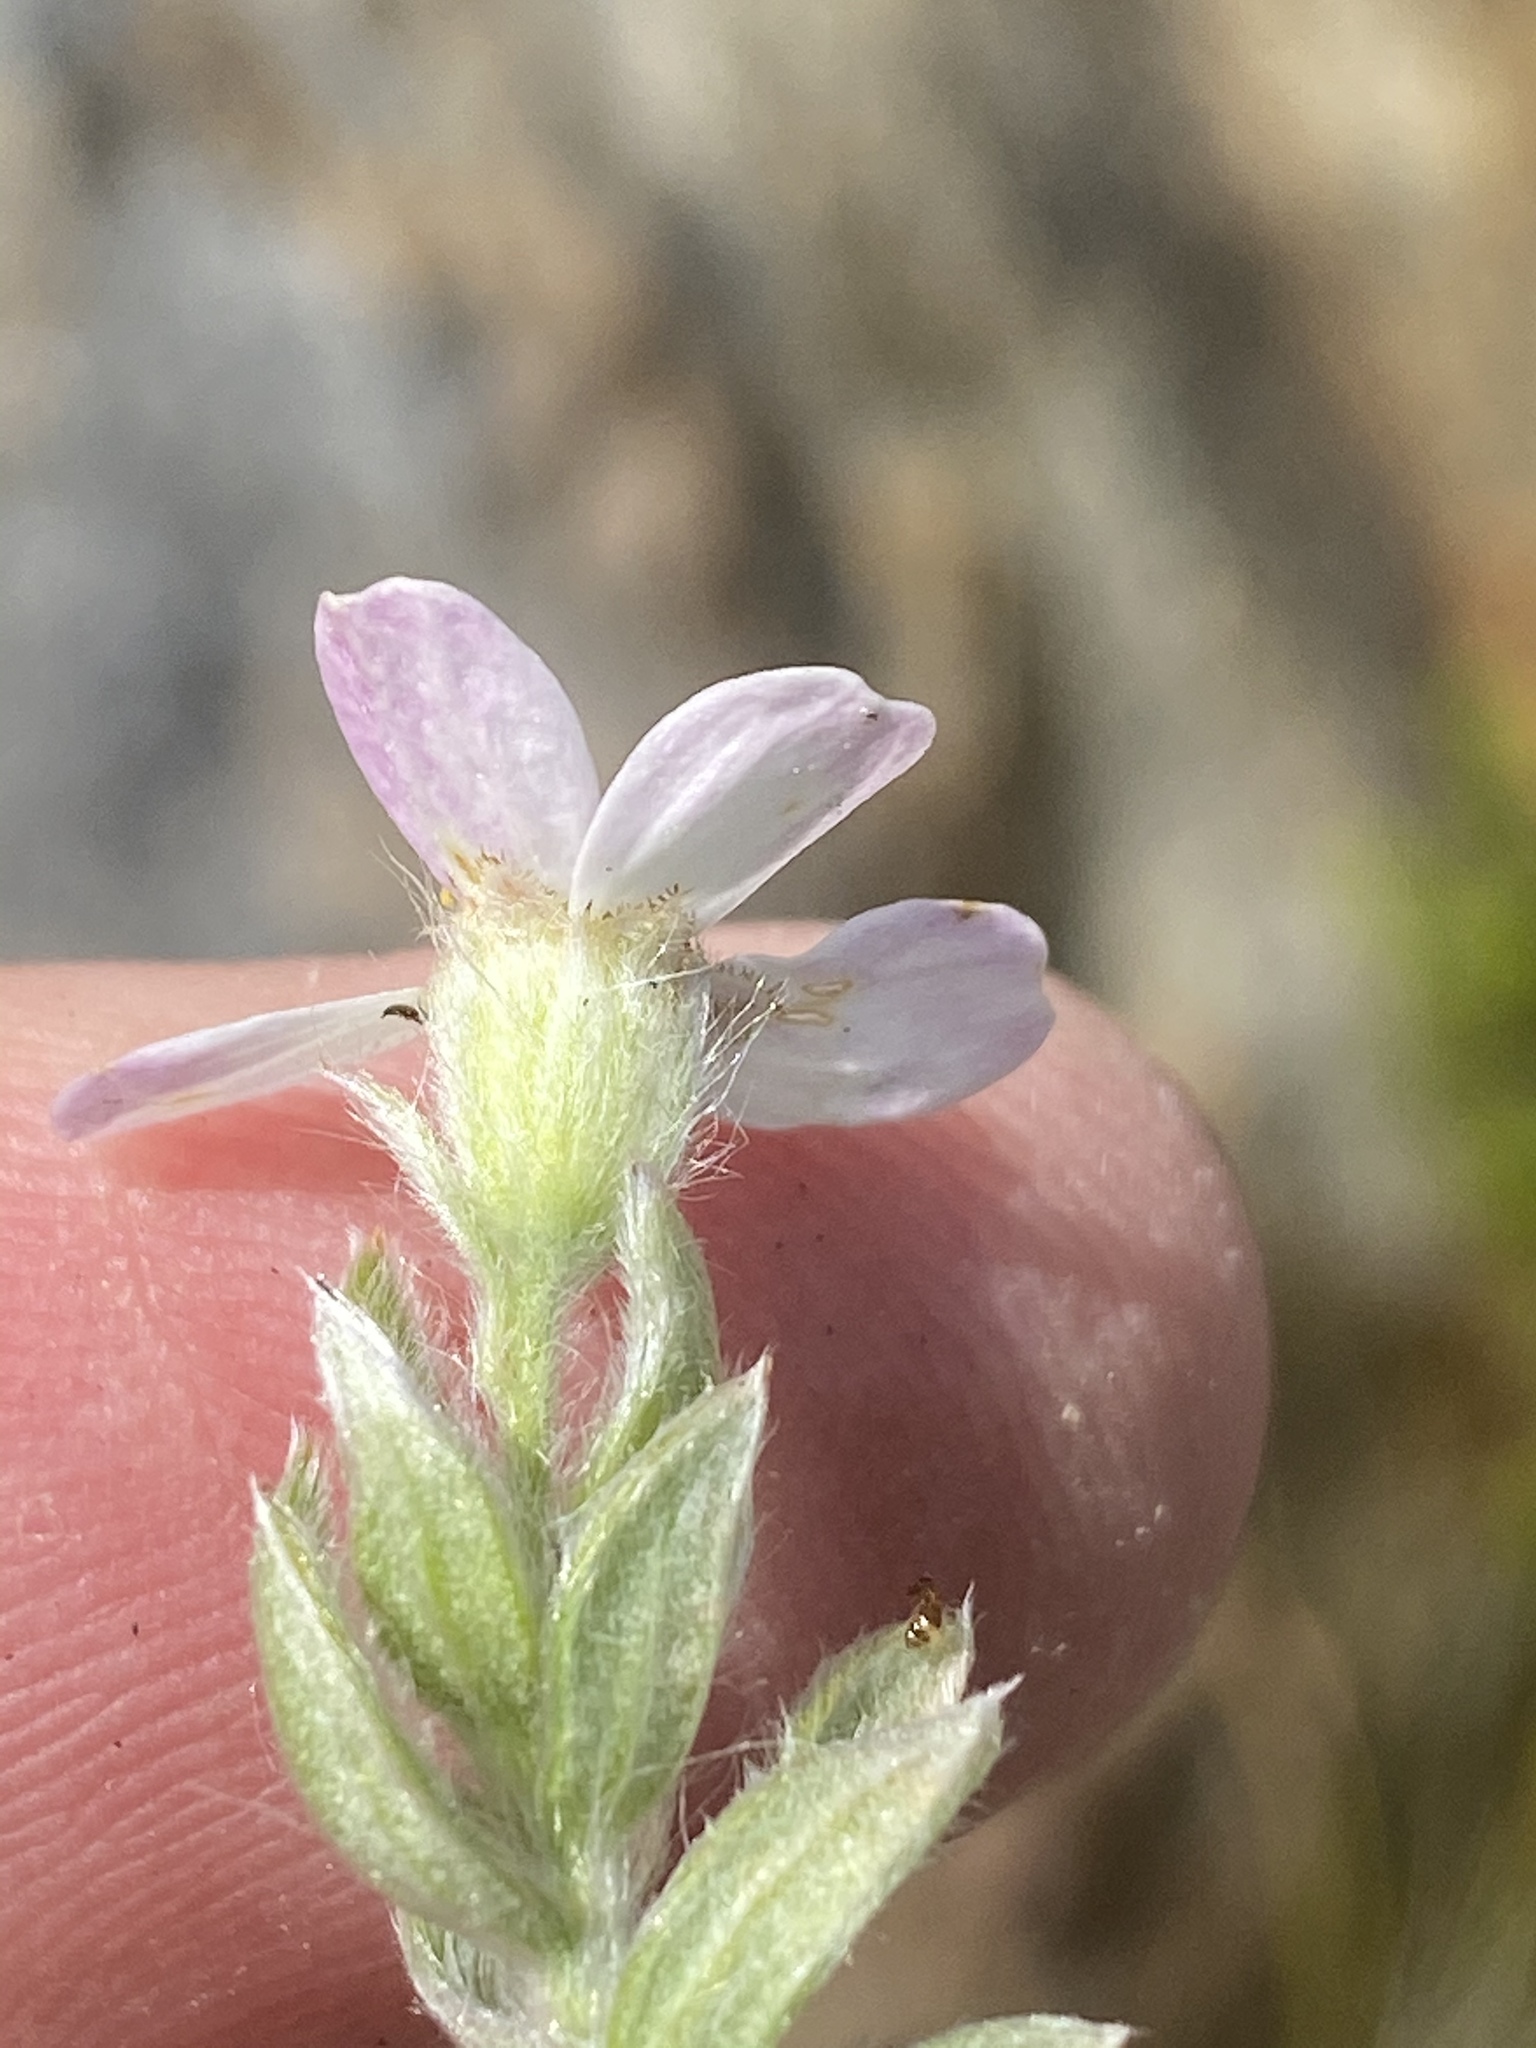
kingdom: Plantae
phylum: Tracheophyta
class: Magnoliopsida
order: Asterales
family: Asteraceae
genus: Thaminophyllum
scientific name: Thaminophyllum latifolium
